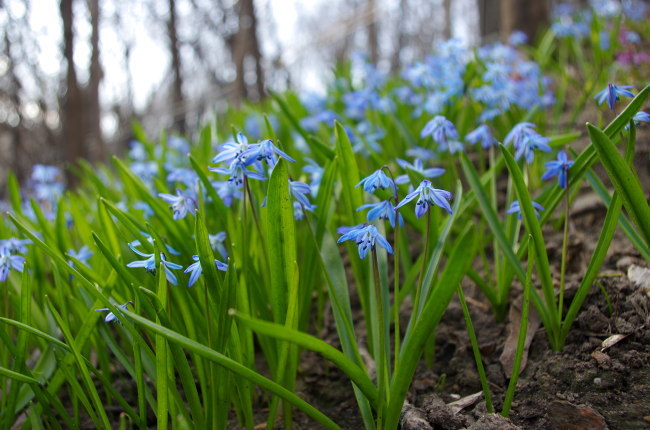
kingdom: Plantae
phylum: Tracheophyta
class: Liliopsida
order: Asparagales
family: Asparagaceae
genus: Scilla
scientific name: Scilla siberica
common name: Siberian squill
